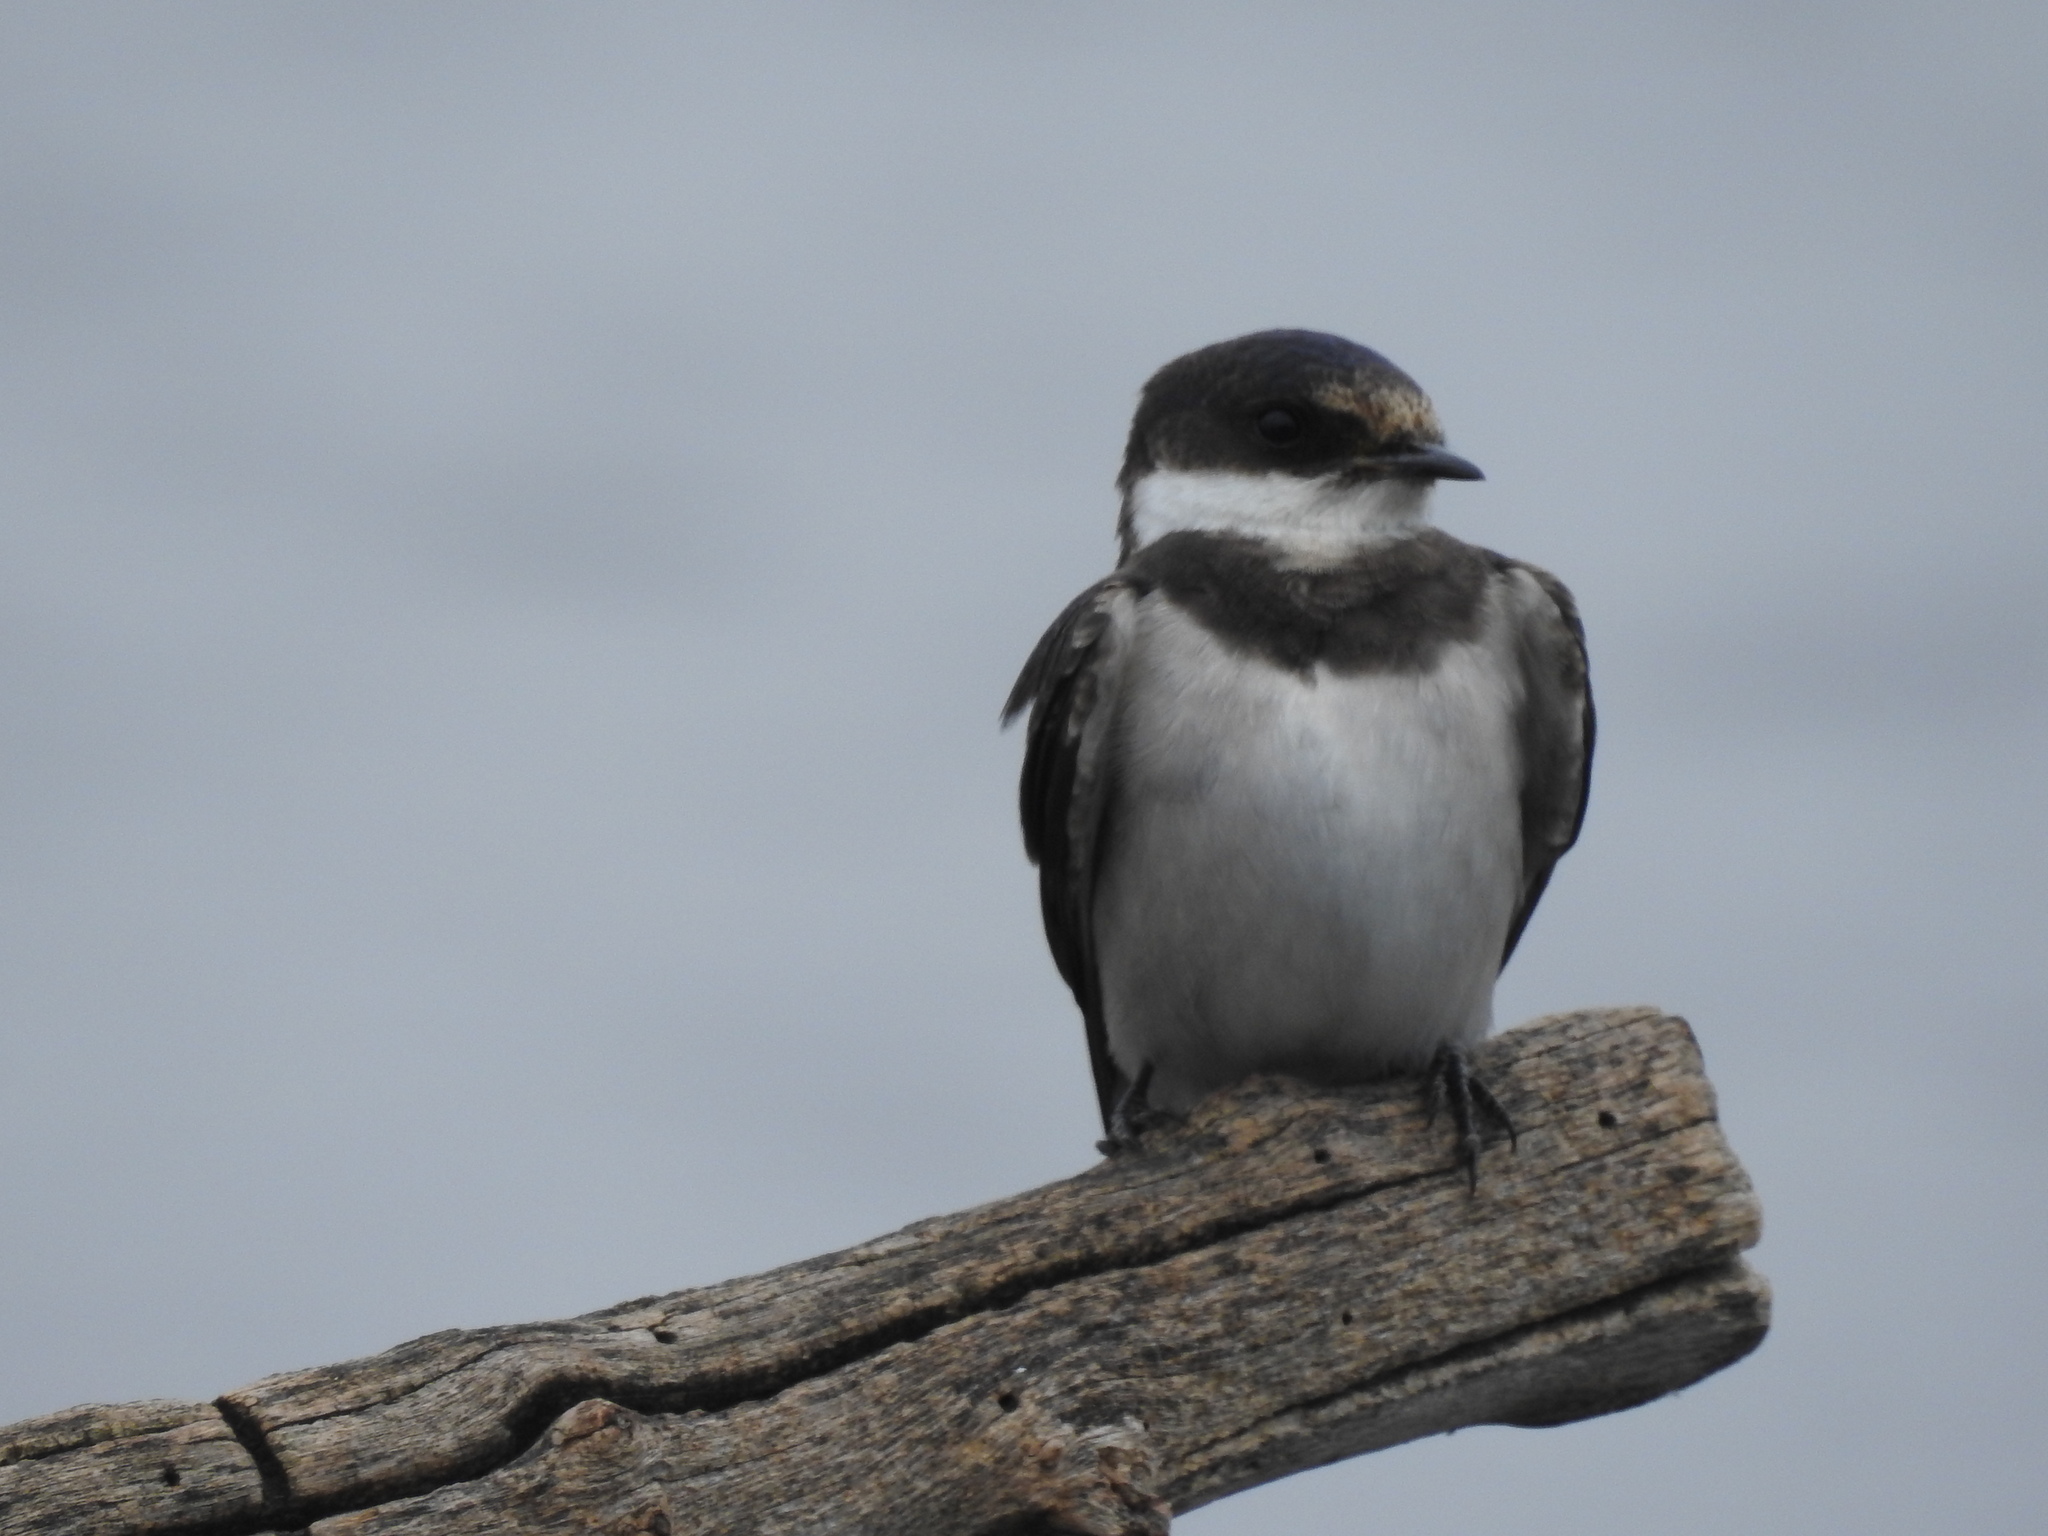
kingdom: Animalia
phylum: Chordata
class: Aves
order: Passeriformes
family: Hirundinidae
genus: Hirundo
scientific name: Hirundo albigularis
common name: White-throated swallow
